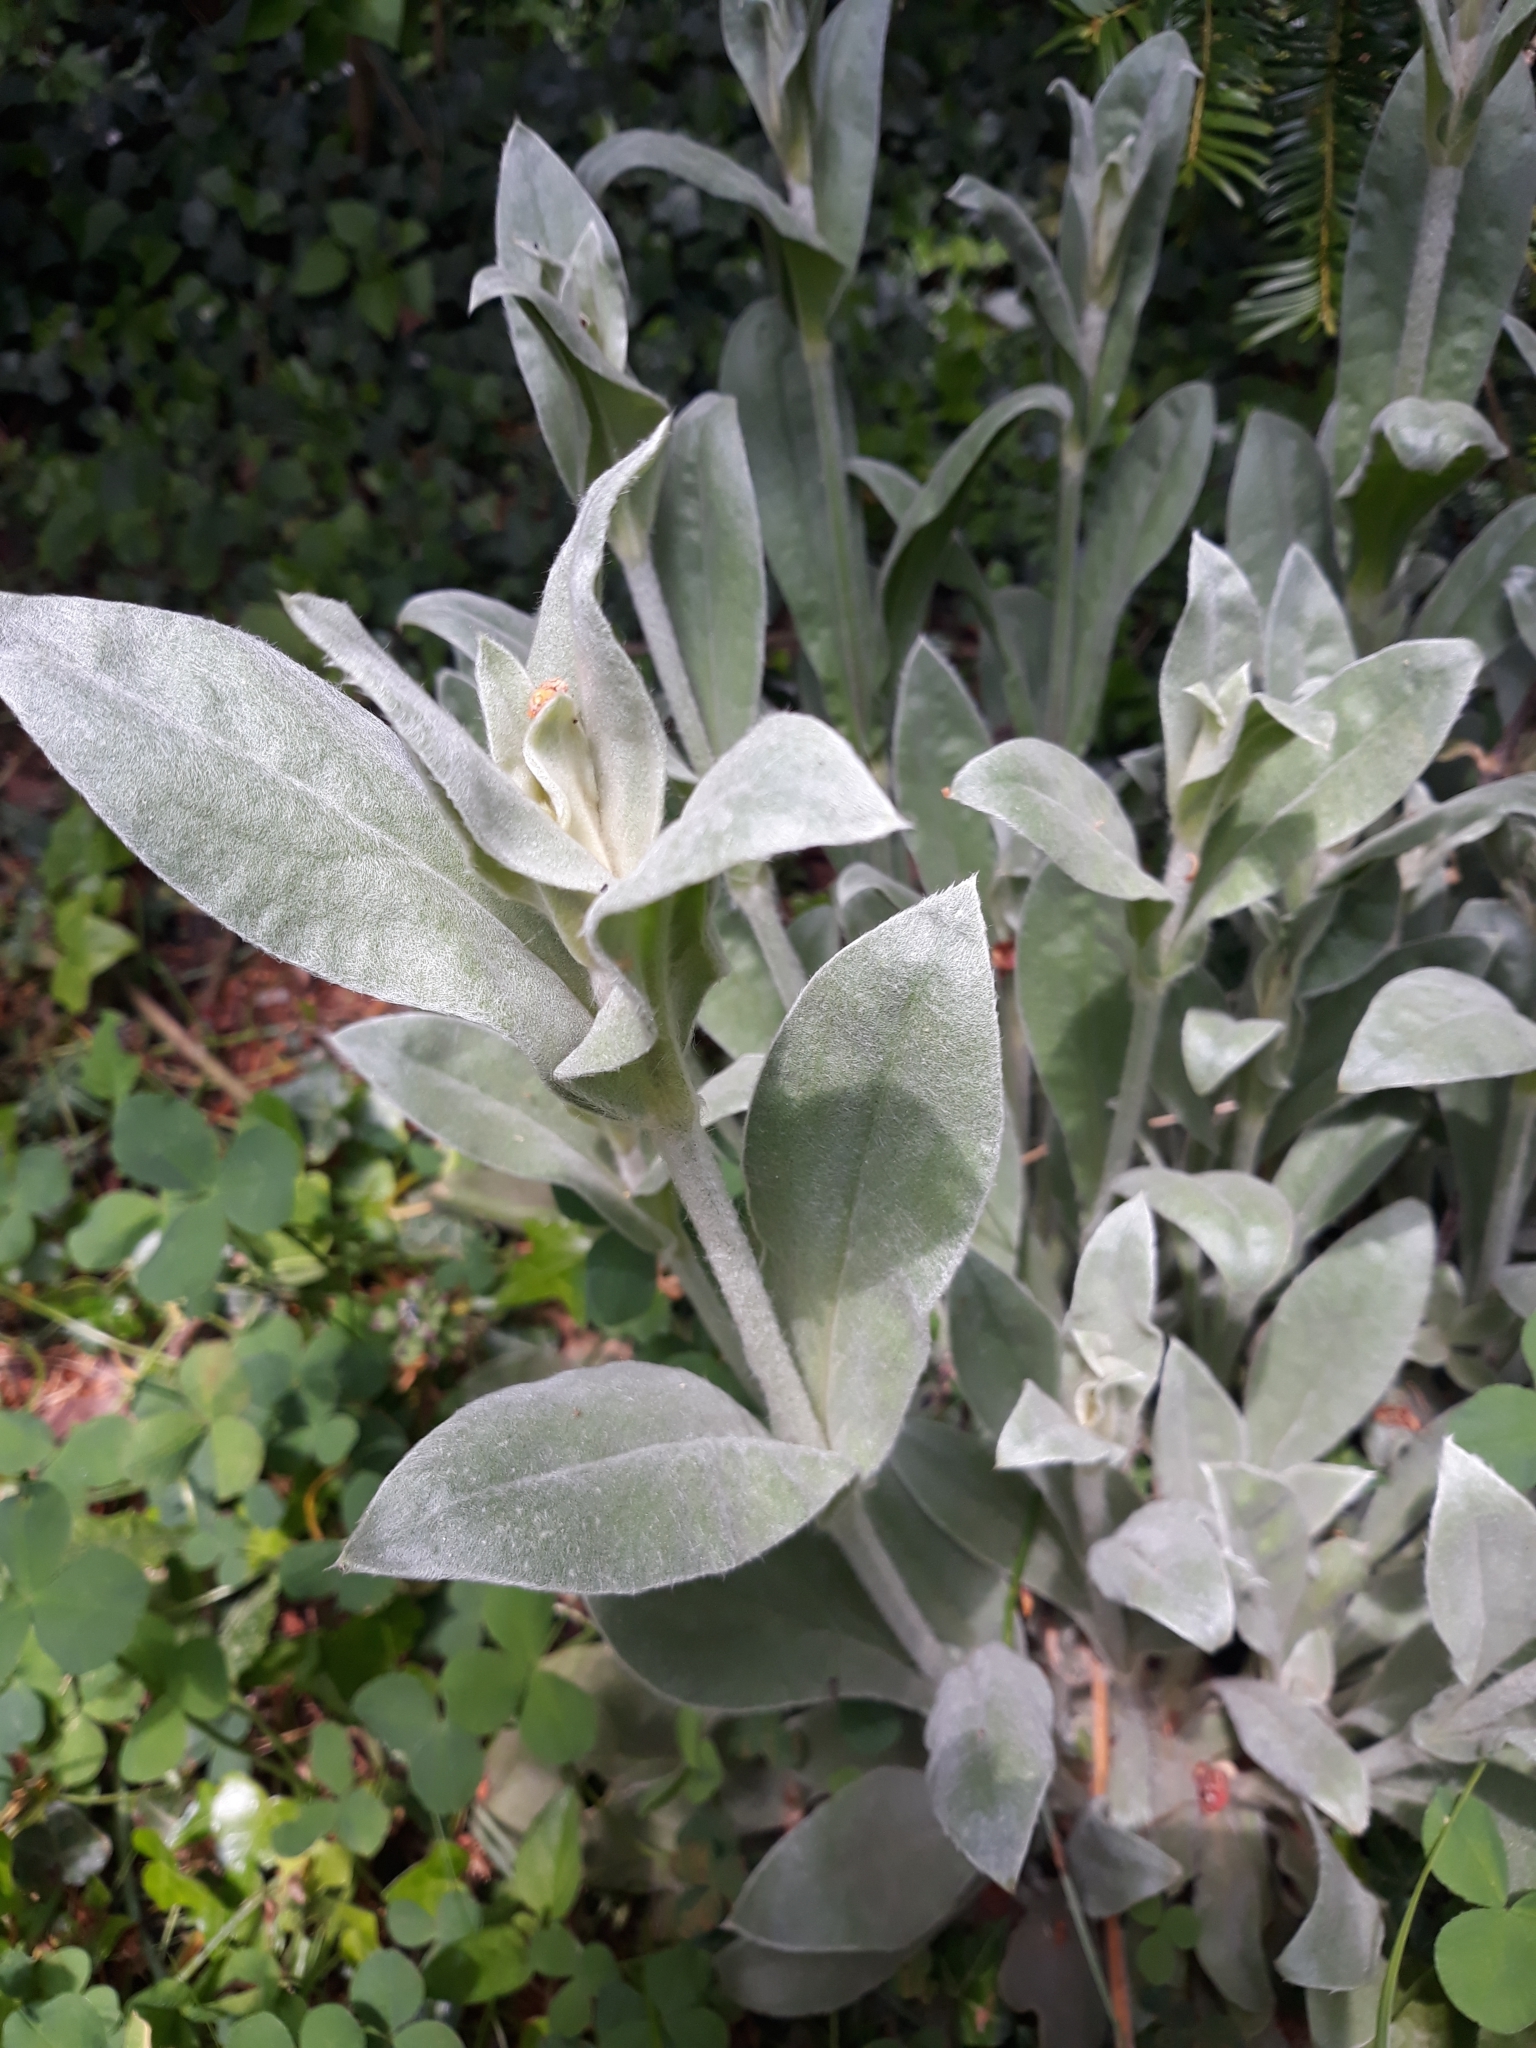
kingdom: Plantae
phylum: Tracheophyta
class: Magnoliopsida
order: Caryophyllales
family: Caryophyllaceae
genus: Silene
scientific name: Silene coronaria
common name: Rose campion
